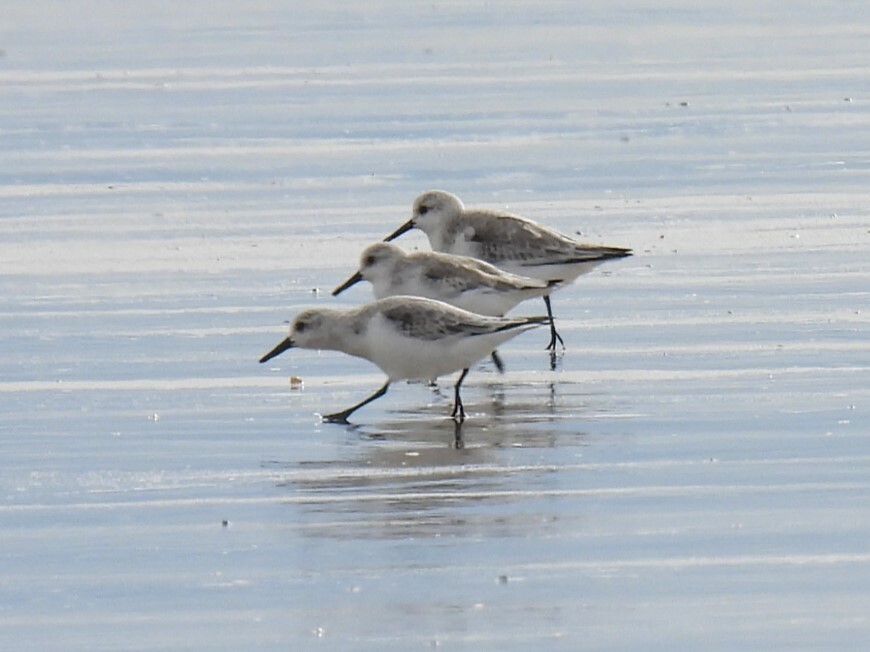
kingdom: Animalia
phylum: Chordata
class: Aves
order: Charadriiformes
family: Scolopacidae
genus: Calidris
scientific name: Calidris alba
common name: Sanderling
